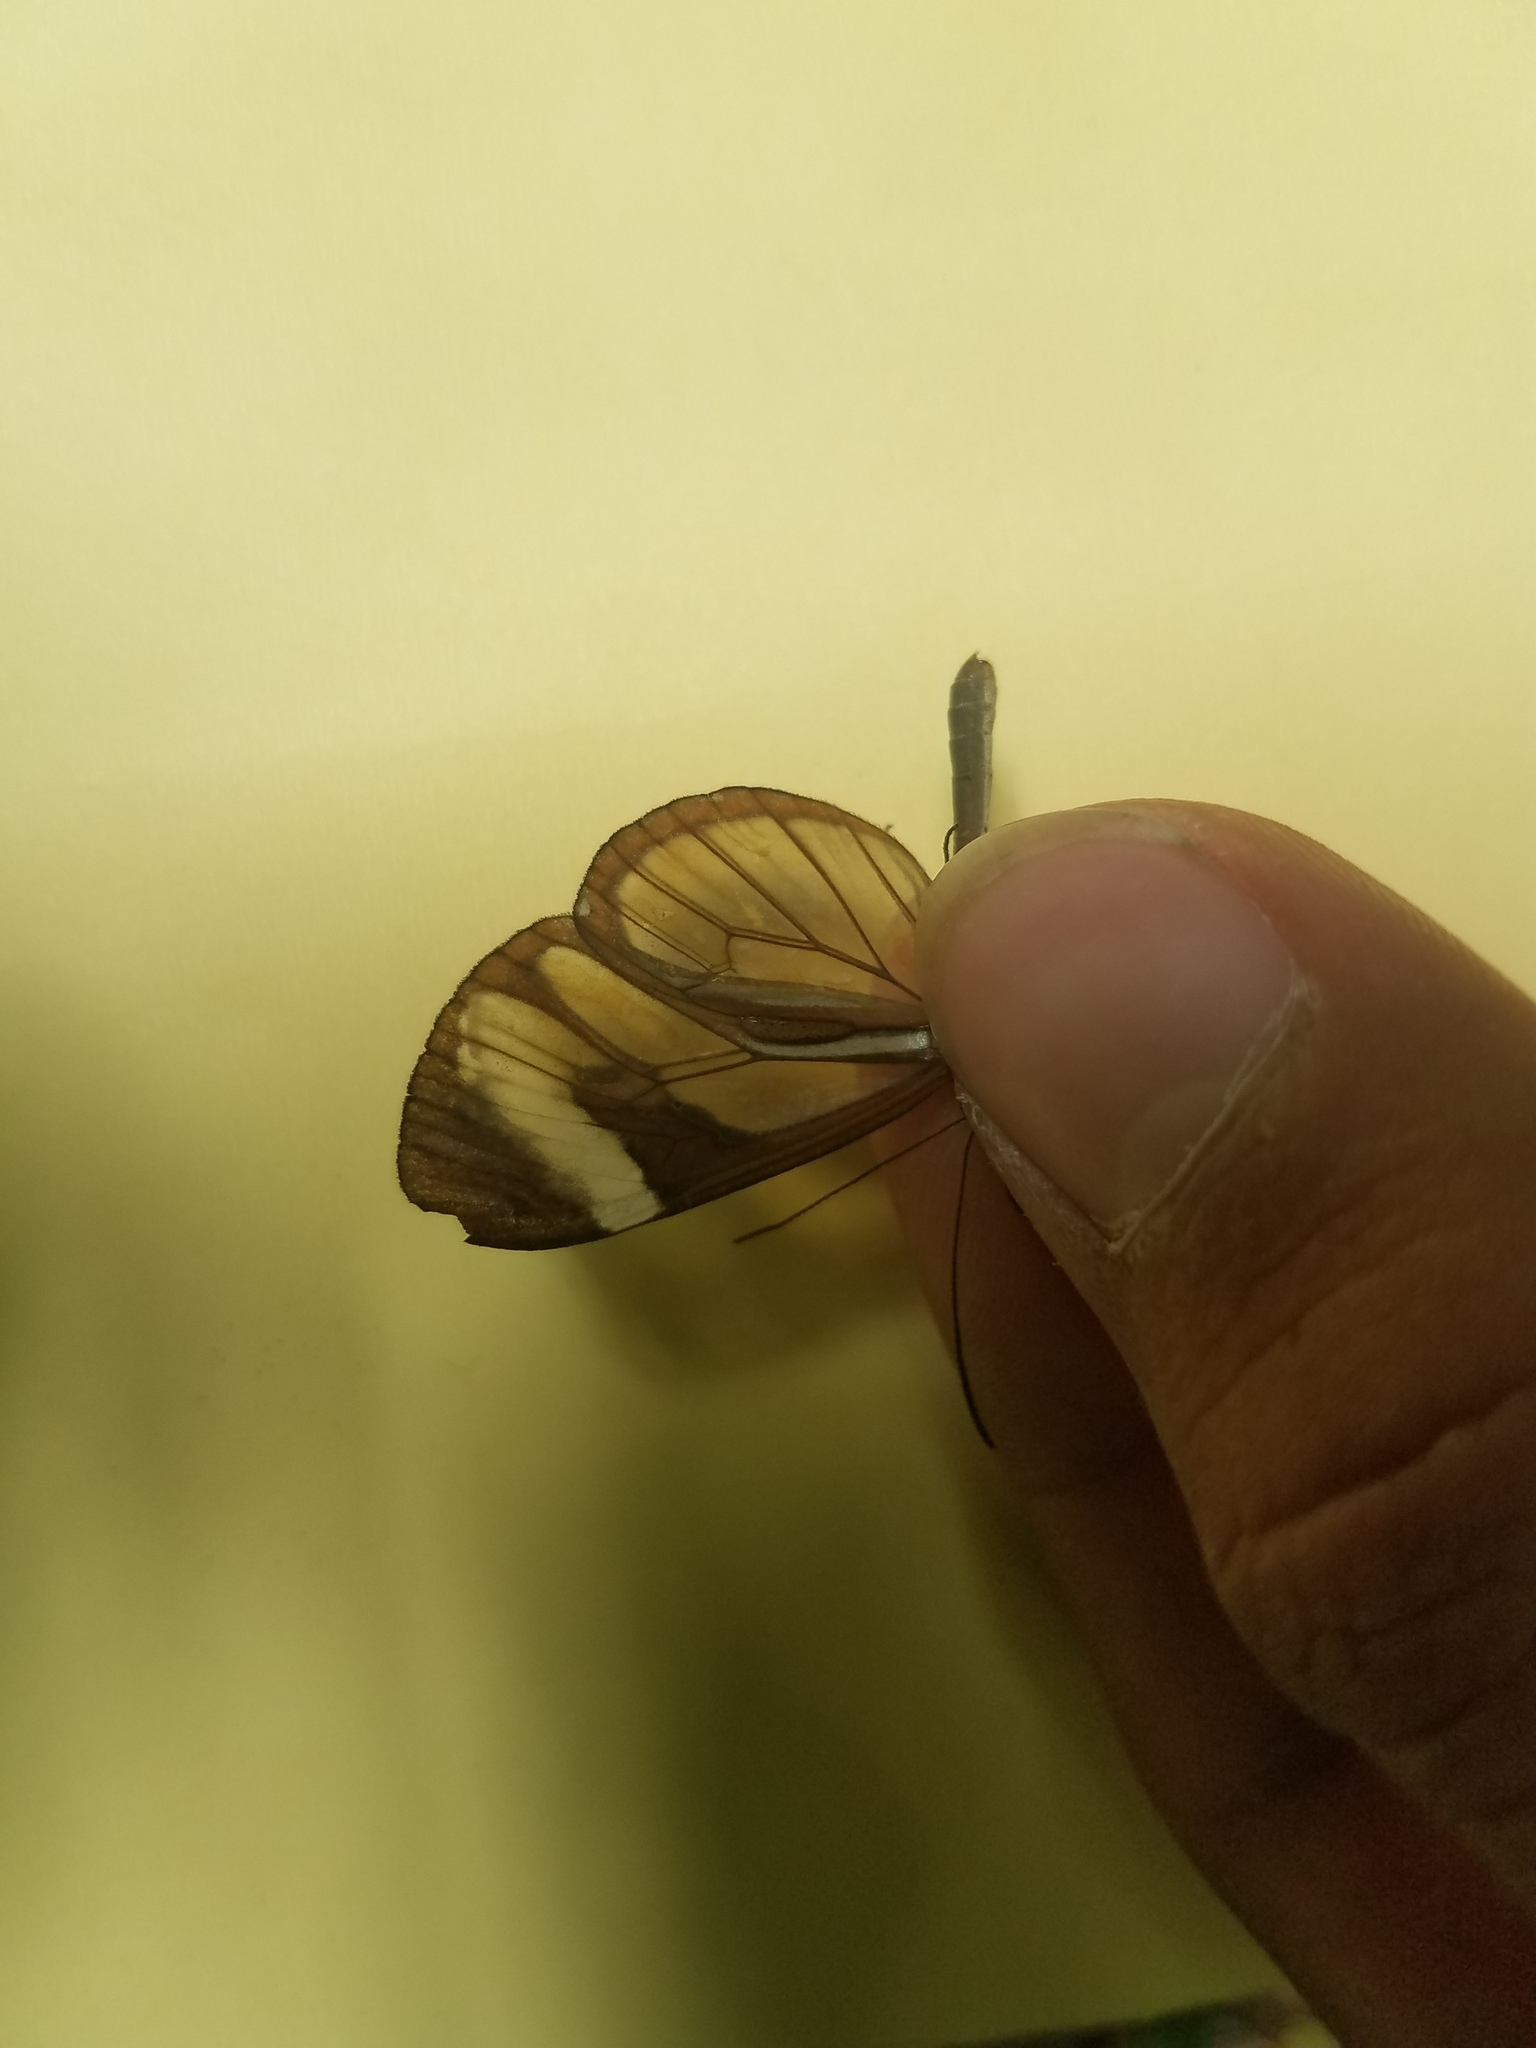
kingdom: Animalia
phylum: Arthropoda
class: Insecta
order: Lepidoptera
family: Nymphalidae
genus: Ithomia
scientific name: Ithomia patilla
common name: Patilla clearwing
